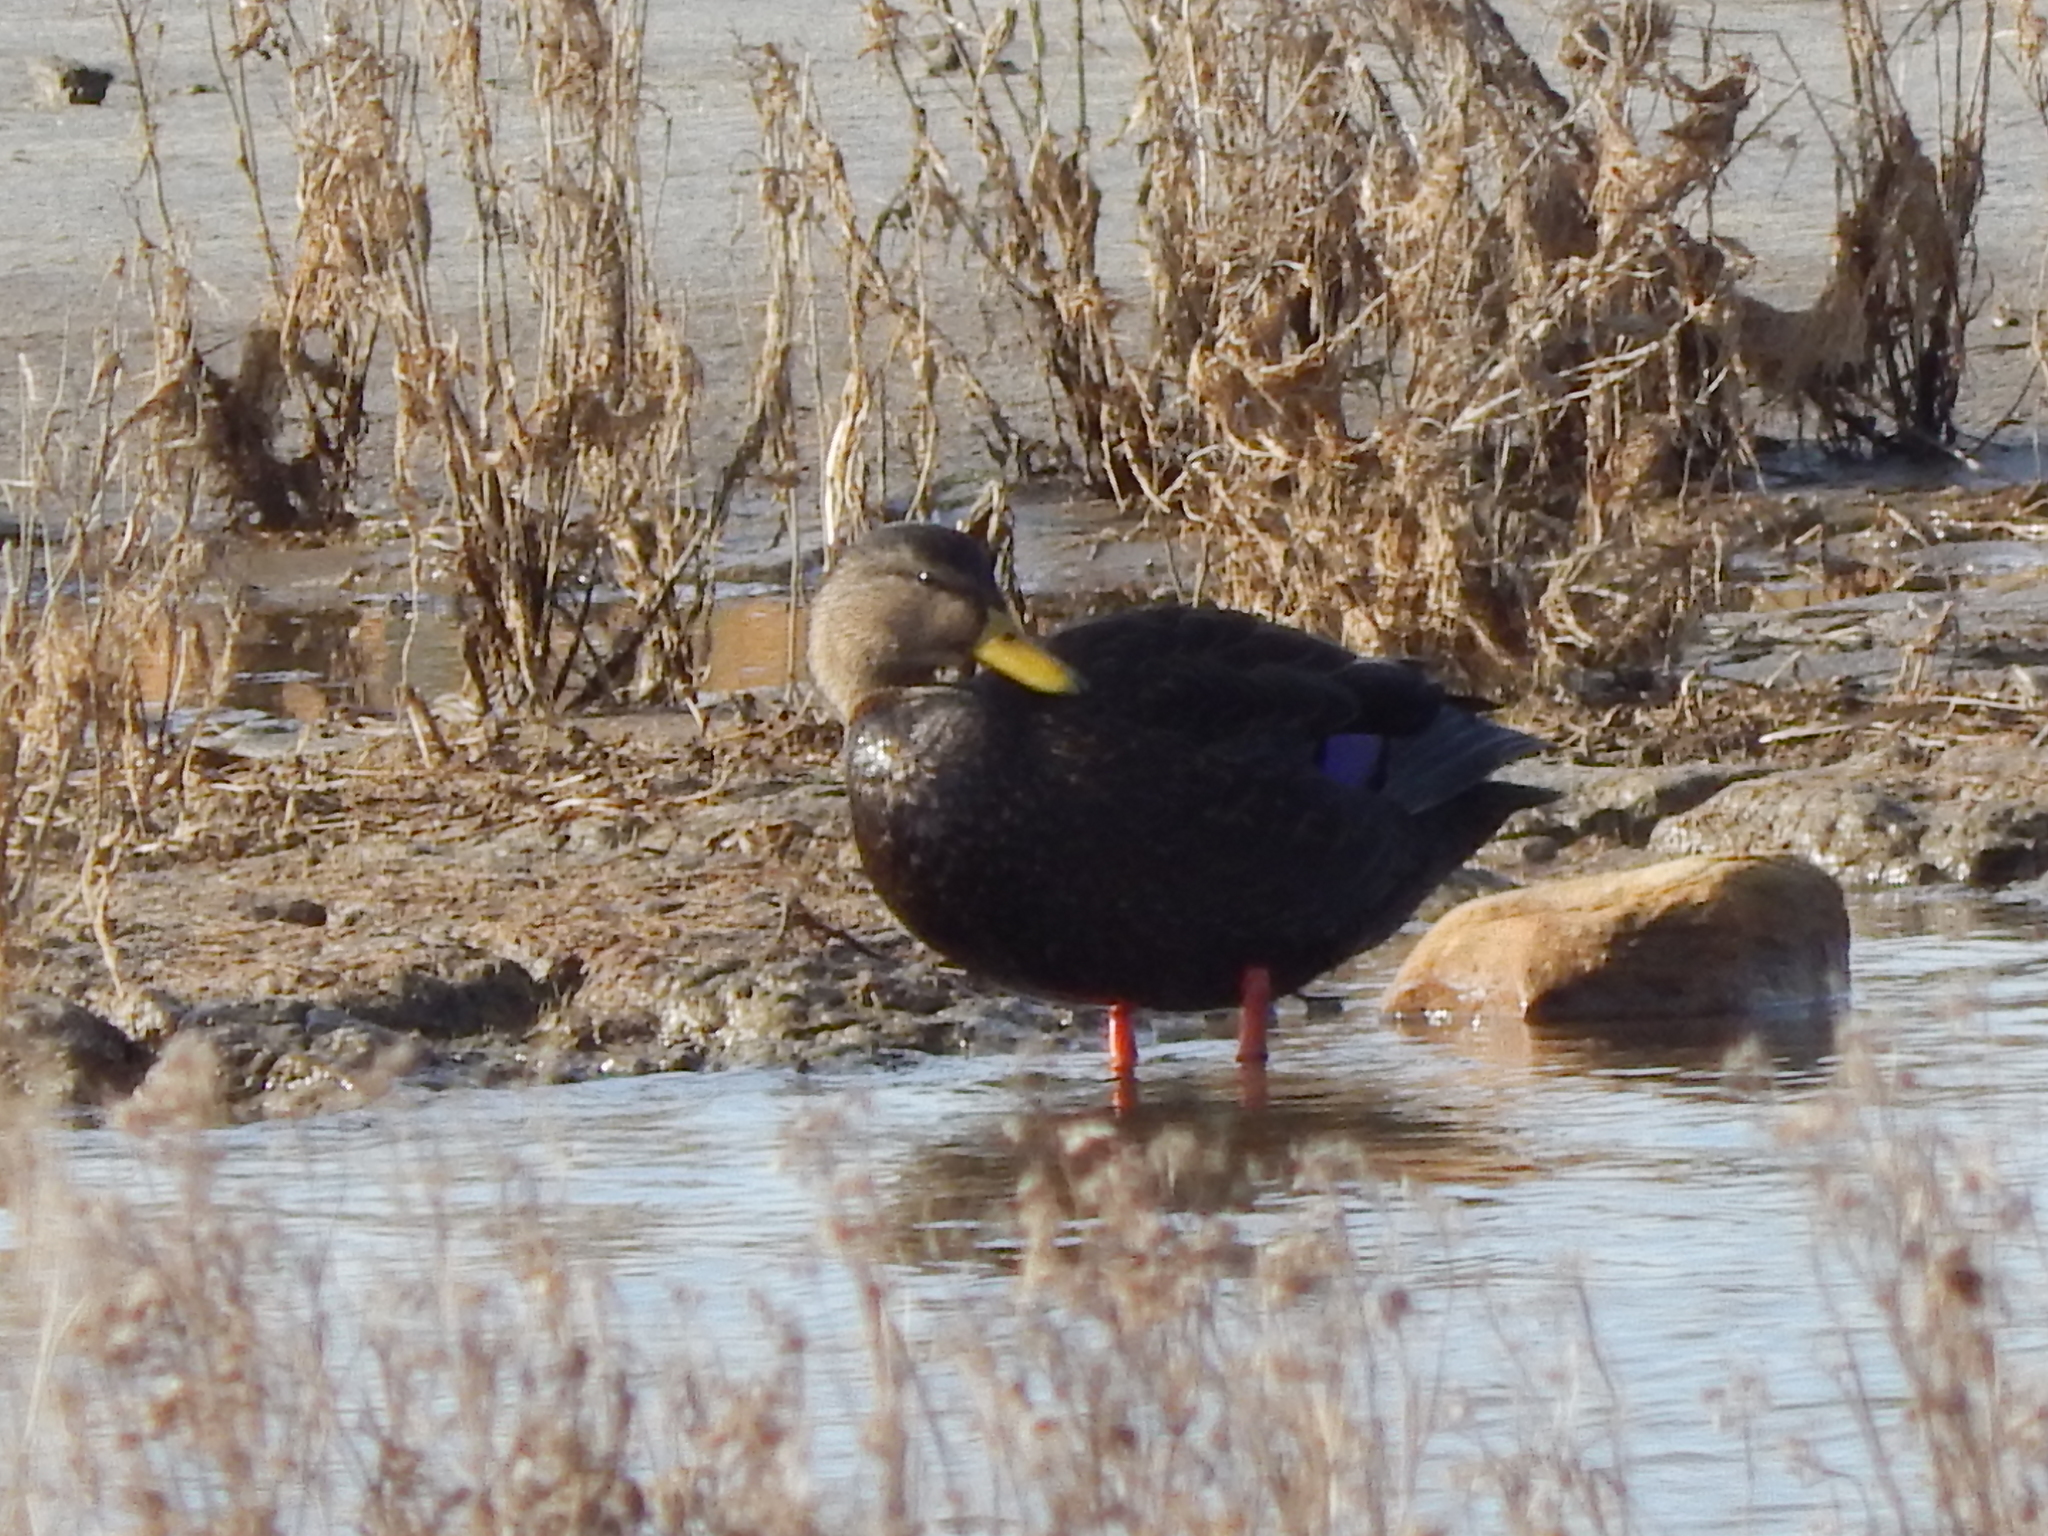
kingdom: Animalia
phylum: Chordata
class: Aves
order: Anseriformes
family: Anatidae
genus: Anas
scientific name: Anas rubripes
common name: American black duck
